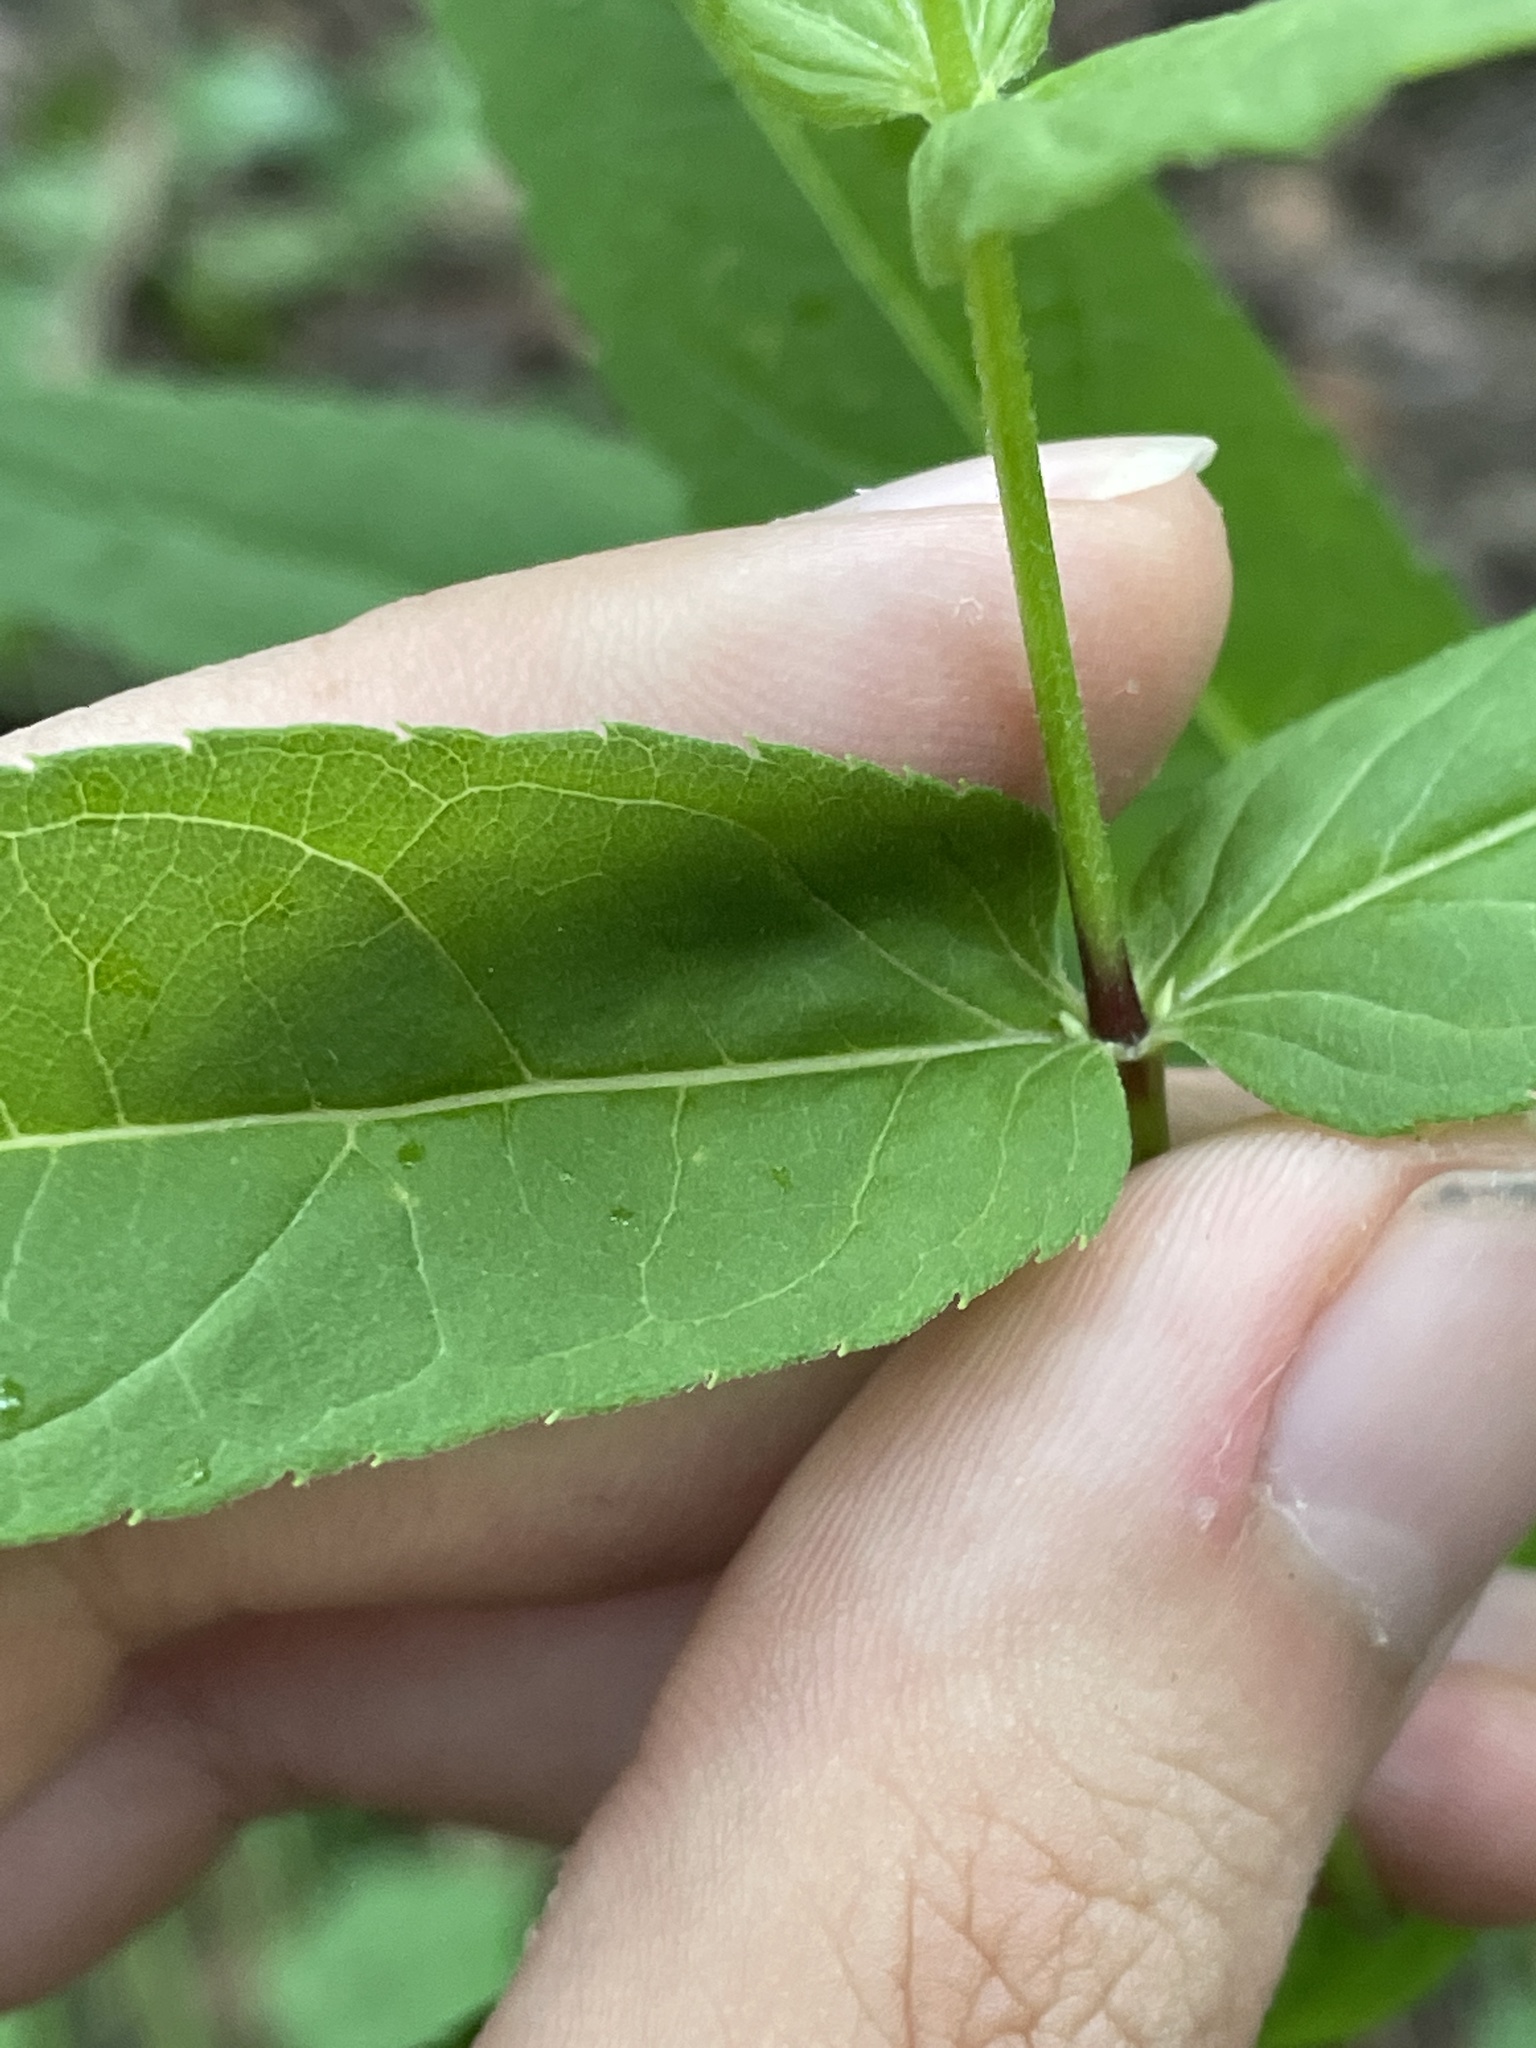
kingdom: Plantae
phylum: Tracheophyta
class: Magnoliopsida
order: Asterales
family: Asteraceae
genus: Eupatorium
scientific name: Eupatorium sessilifolium
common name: Upland boneset
